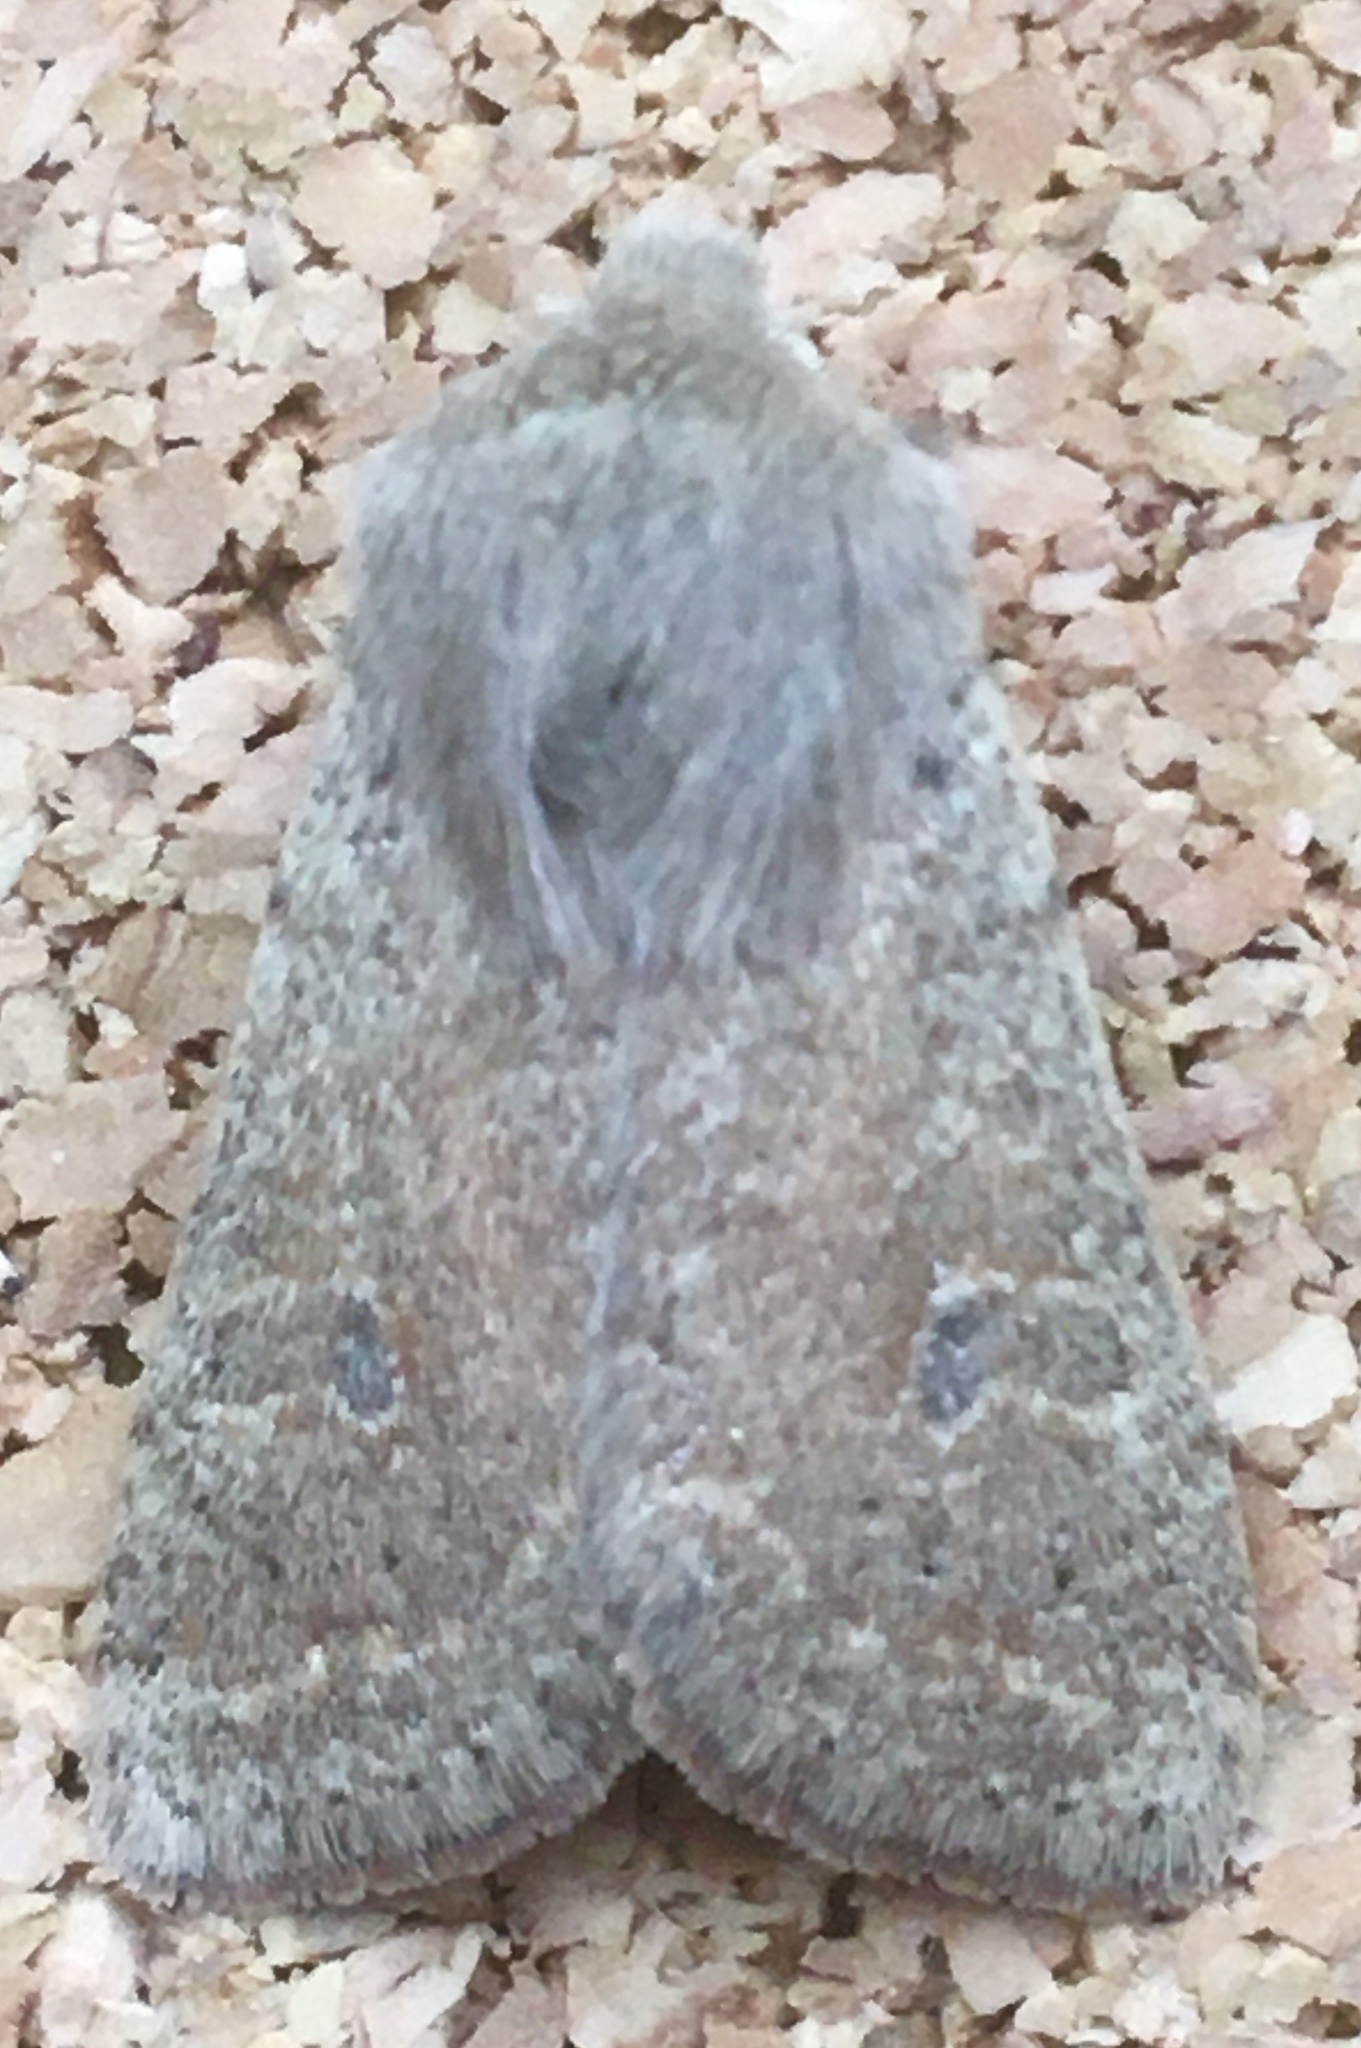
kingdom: Animalia
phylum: Arthropoda
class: Insecta
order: Lepidoptera
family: Noctuidae
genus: Orthosia
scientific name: Orthosia cruda
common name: Small quaker
